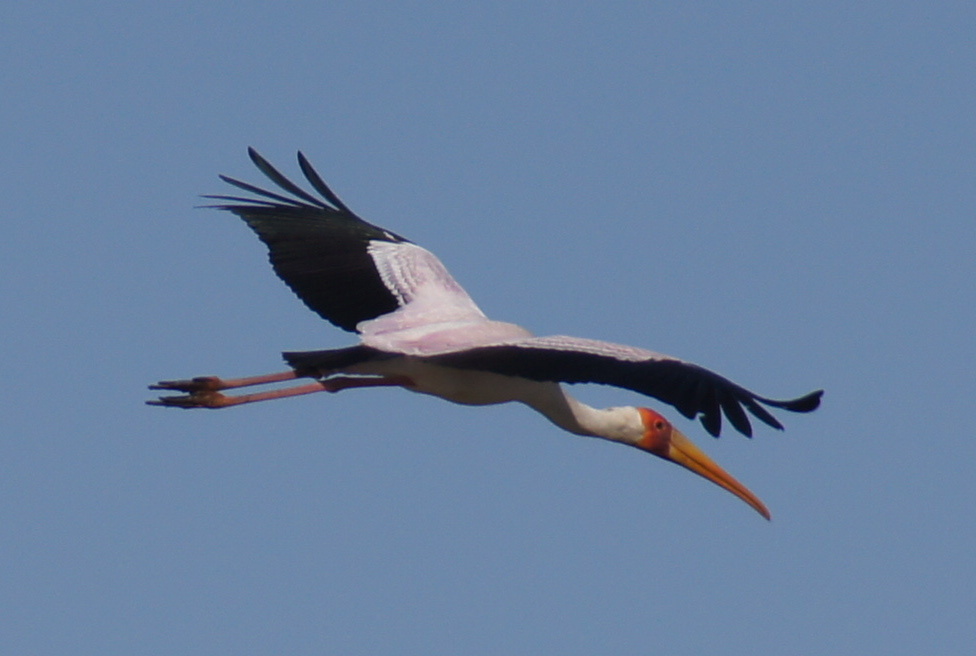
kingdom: Animalia
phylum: Chordata
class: Aves
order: Ciconiiformes
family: Ciconiidae
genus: Mycteria
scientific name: Mycteria ibis
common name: Yellow-billed stork
